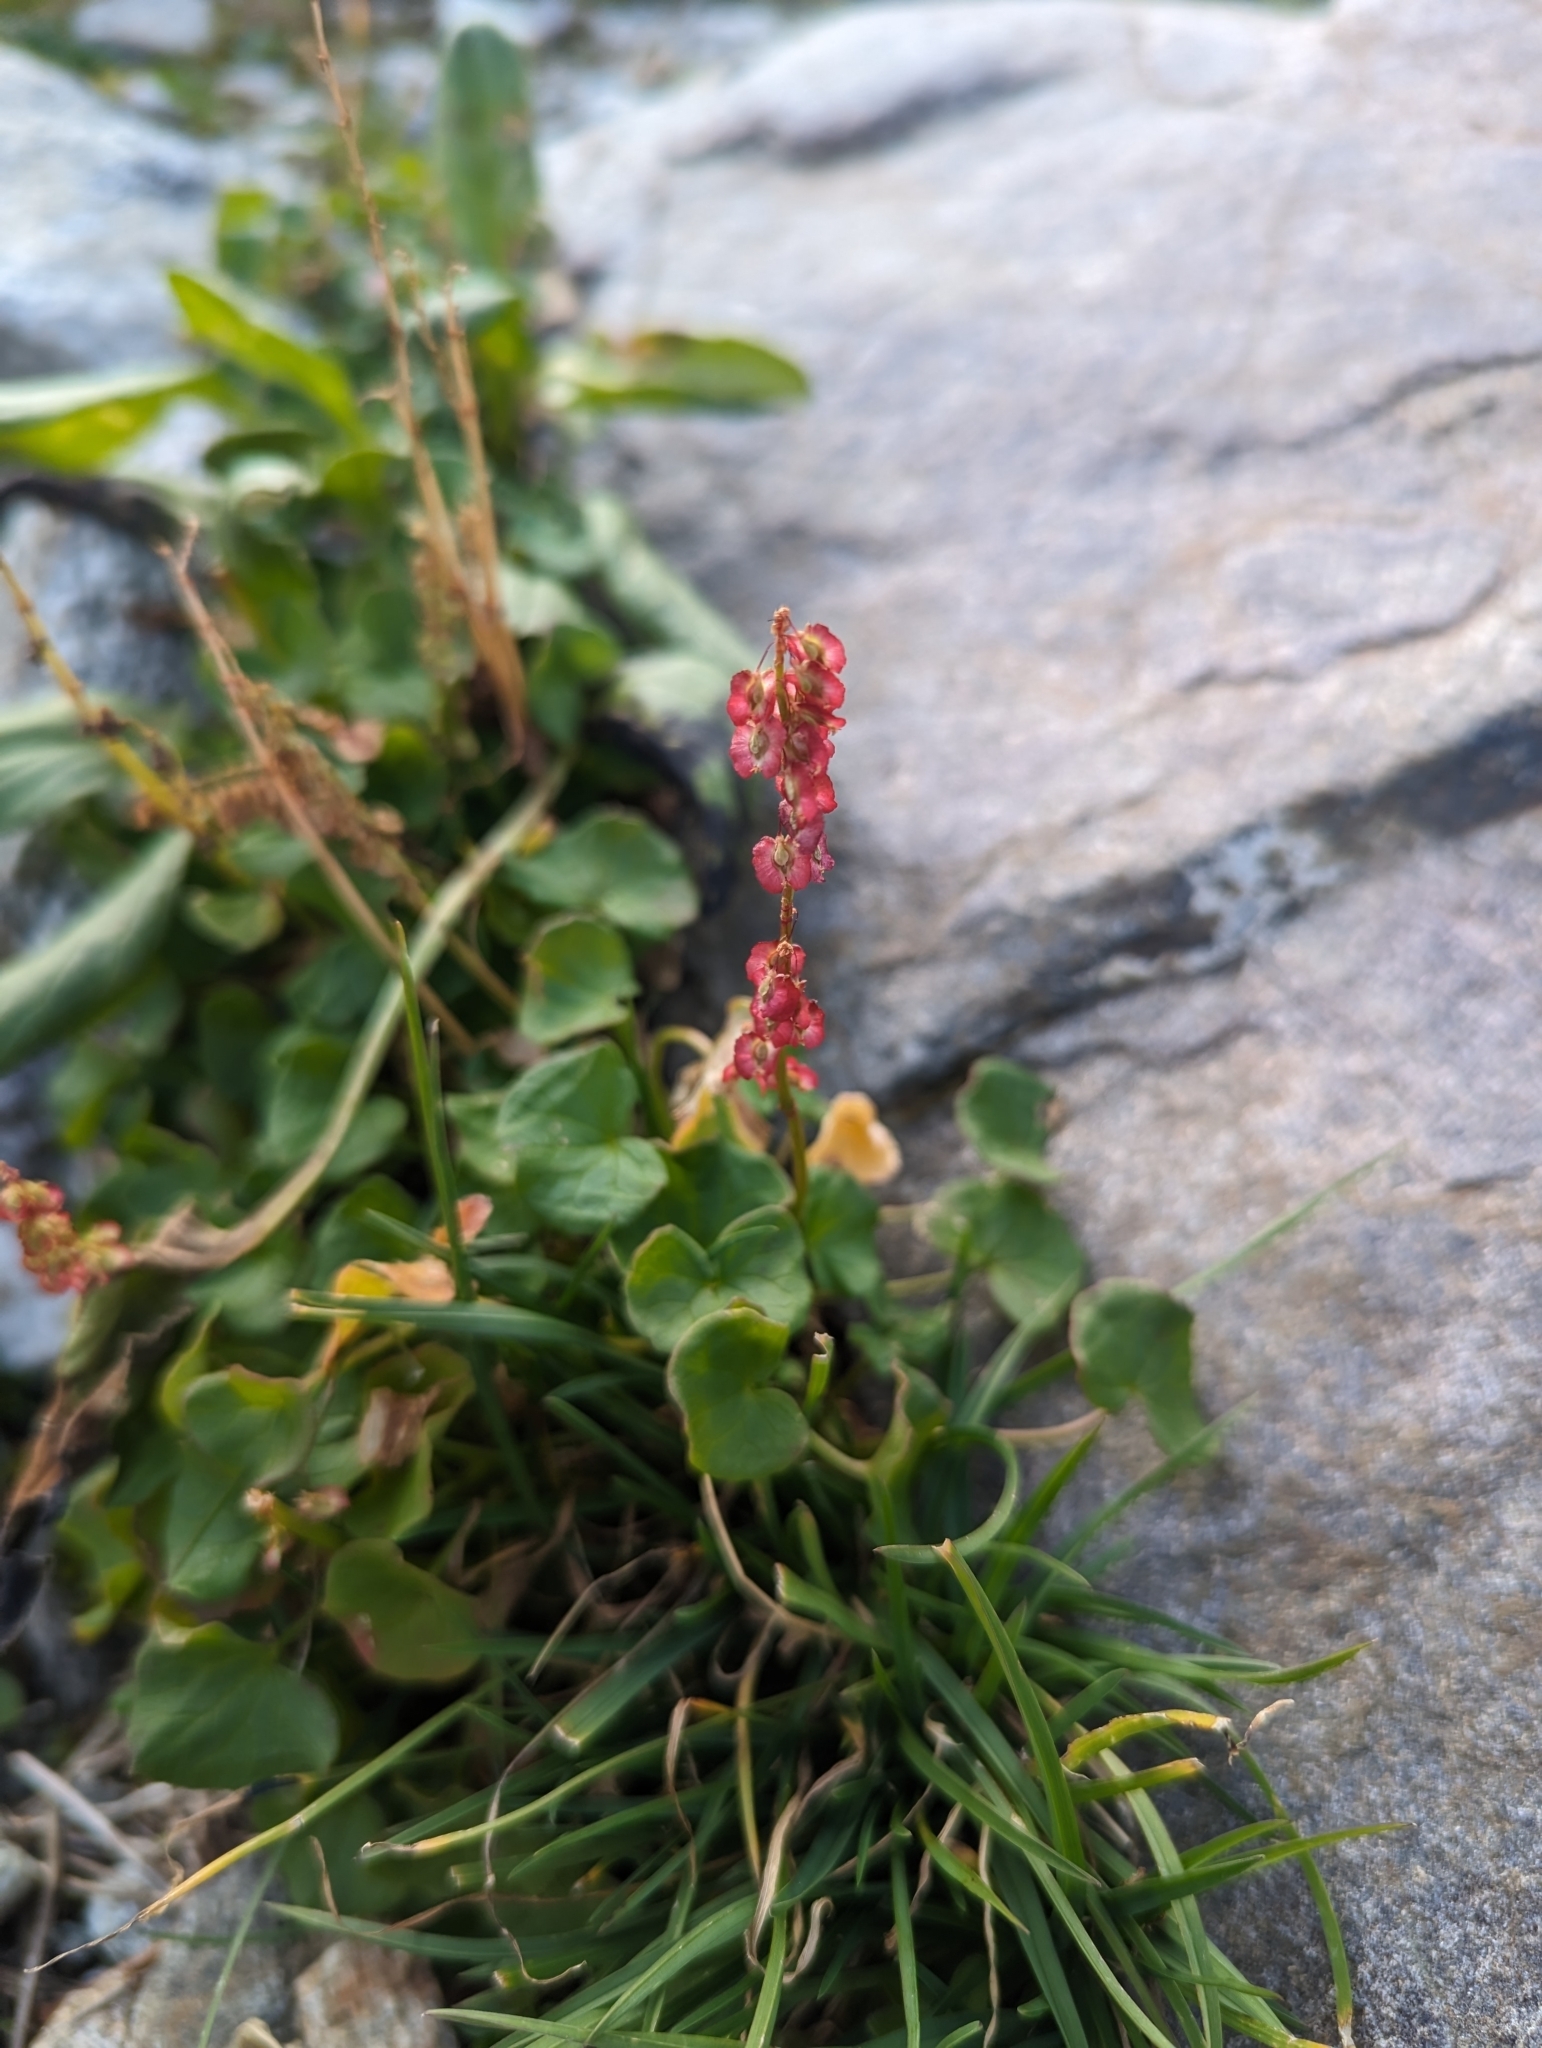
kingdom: Plantae
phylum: Tracheophyta
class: Magnoliopsida
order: Caryophyllales
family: Polygonaceae
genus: Oxyria
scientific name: Oxyria digyna
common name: Alpine mountain-sorrel
